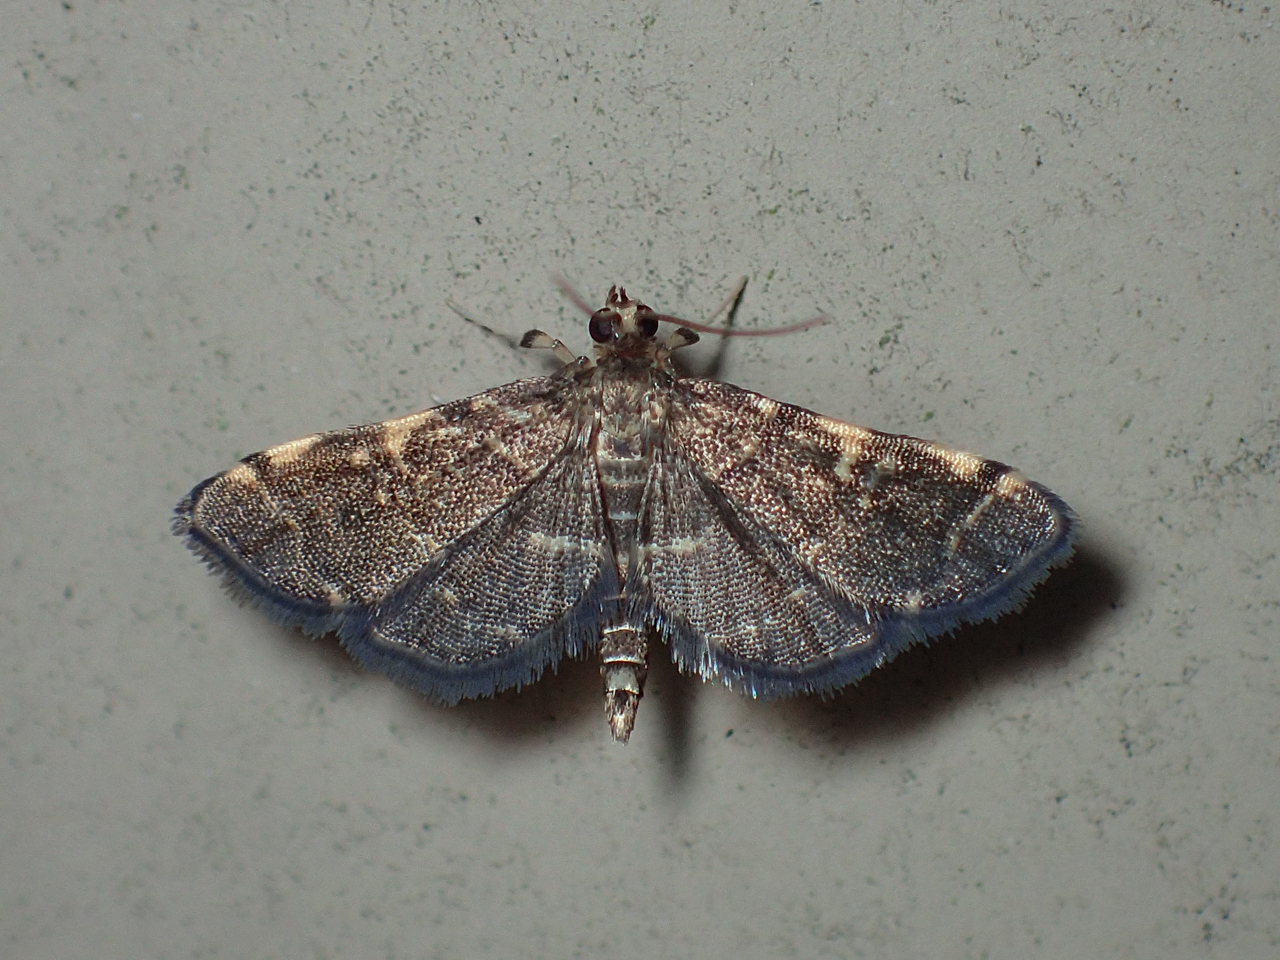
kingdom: Animalia
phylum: Arthropoda
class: Insecta
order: Lepidoptera
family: Crambidae
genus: Anageshna
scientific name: Anageshna primordialis
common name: Yellow-spotted webworm moth
